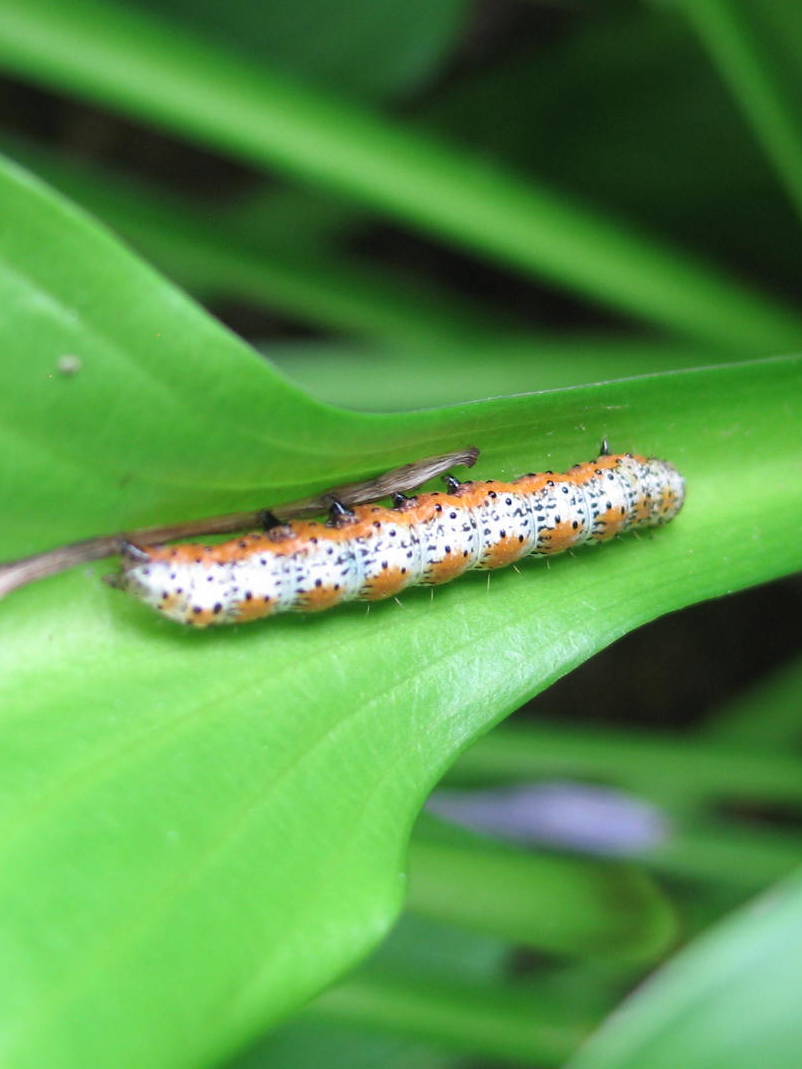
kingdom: Animalia
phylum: Arthropoda
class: Insecta
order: Lepidoptera
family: Noctuidae
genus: Pyrrhia
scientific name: Pyrrhia exprimens
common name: Purple-lined sallow
